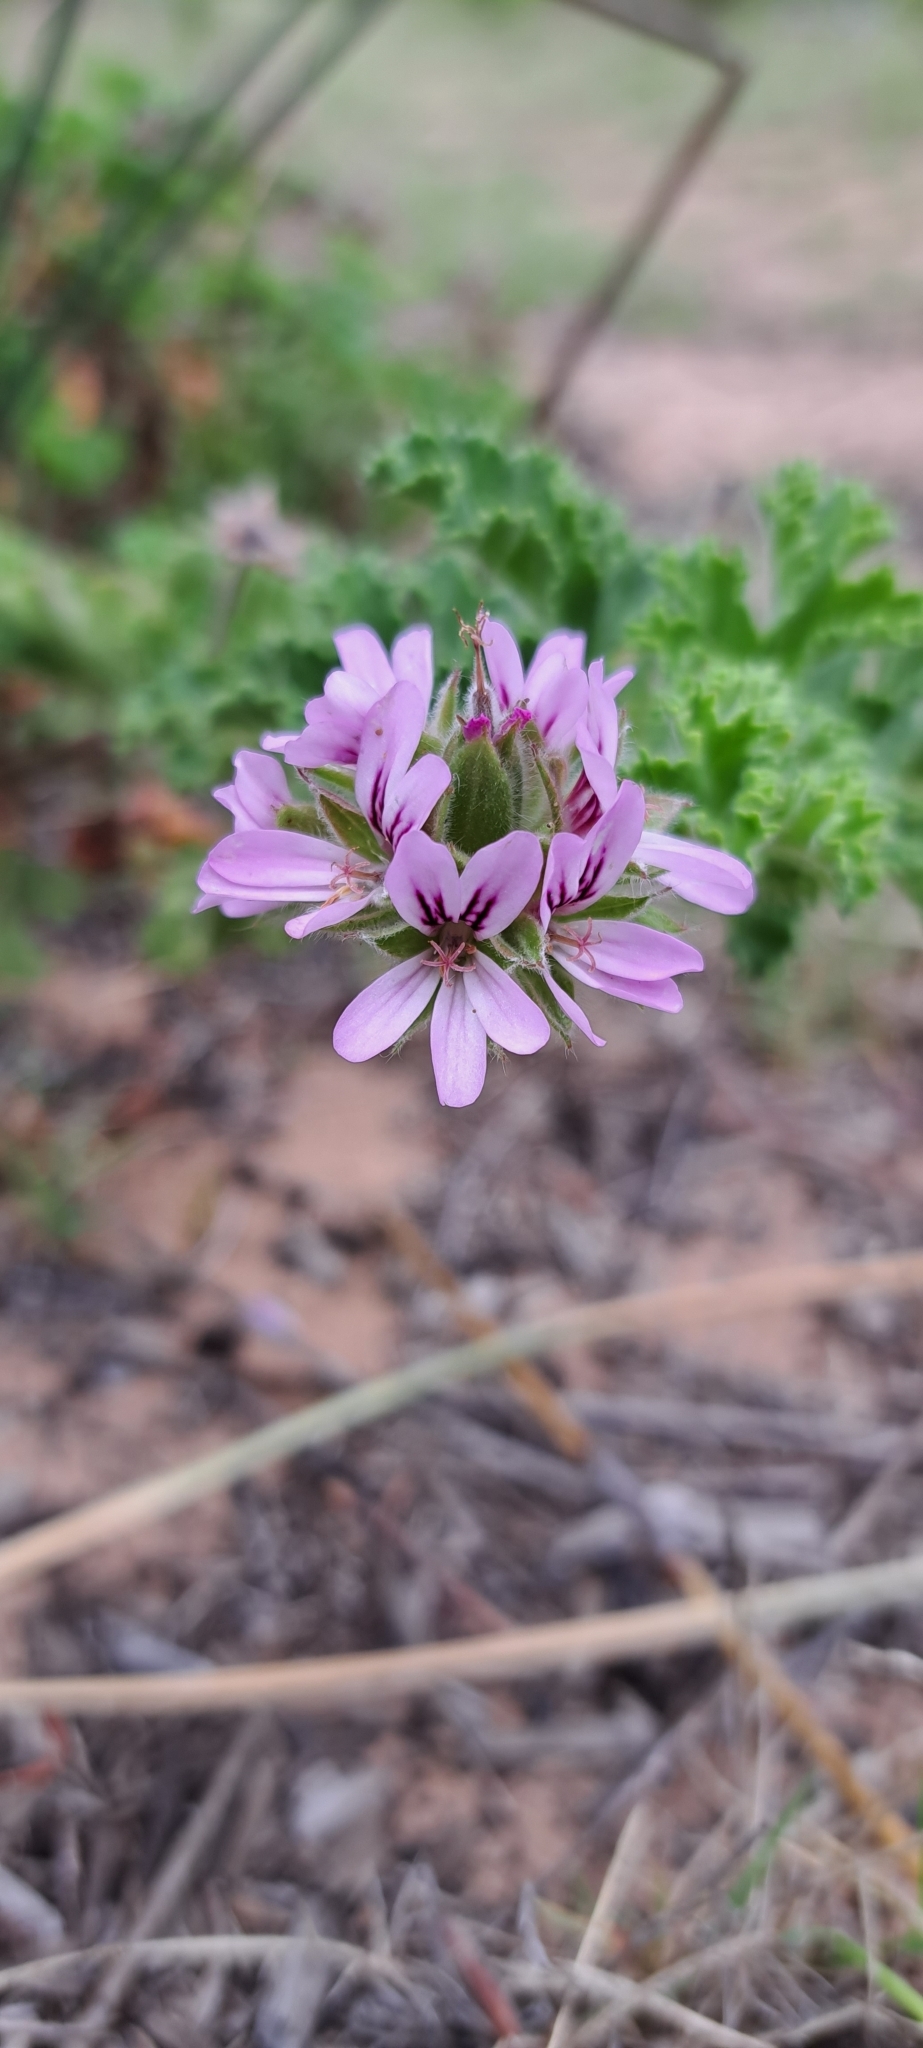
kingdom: Plantae
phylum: Tracheophyta
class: Magnoliopsida
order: Geraniales
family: Geraniaceae
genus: Pelargonium
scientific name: Pelargonium capitatum
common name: Rose scented geranium
